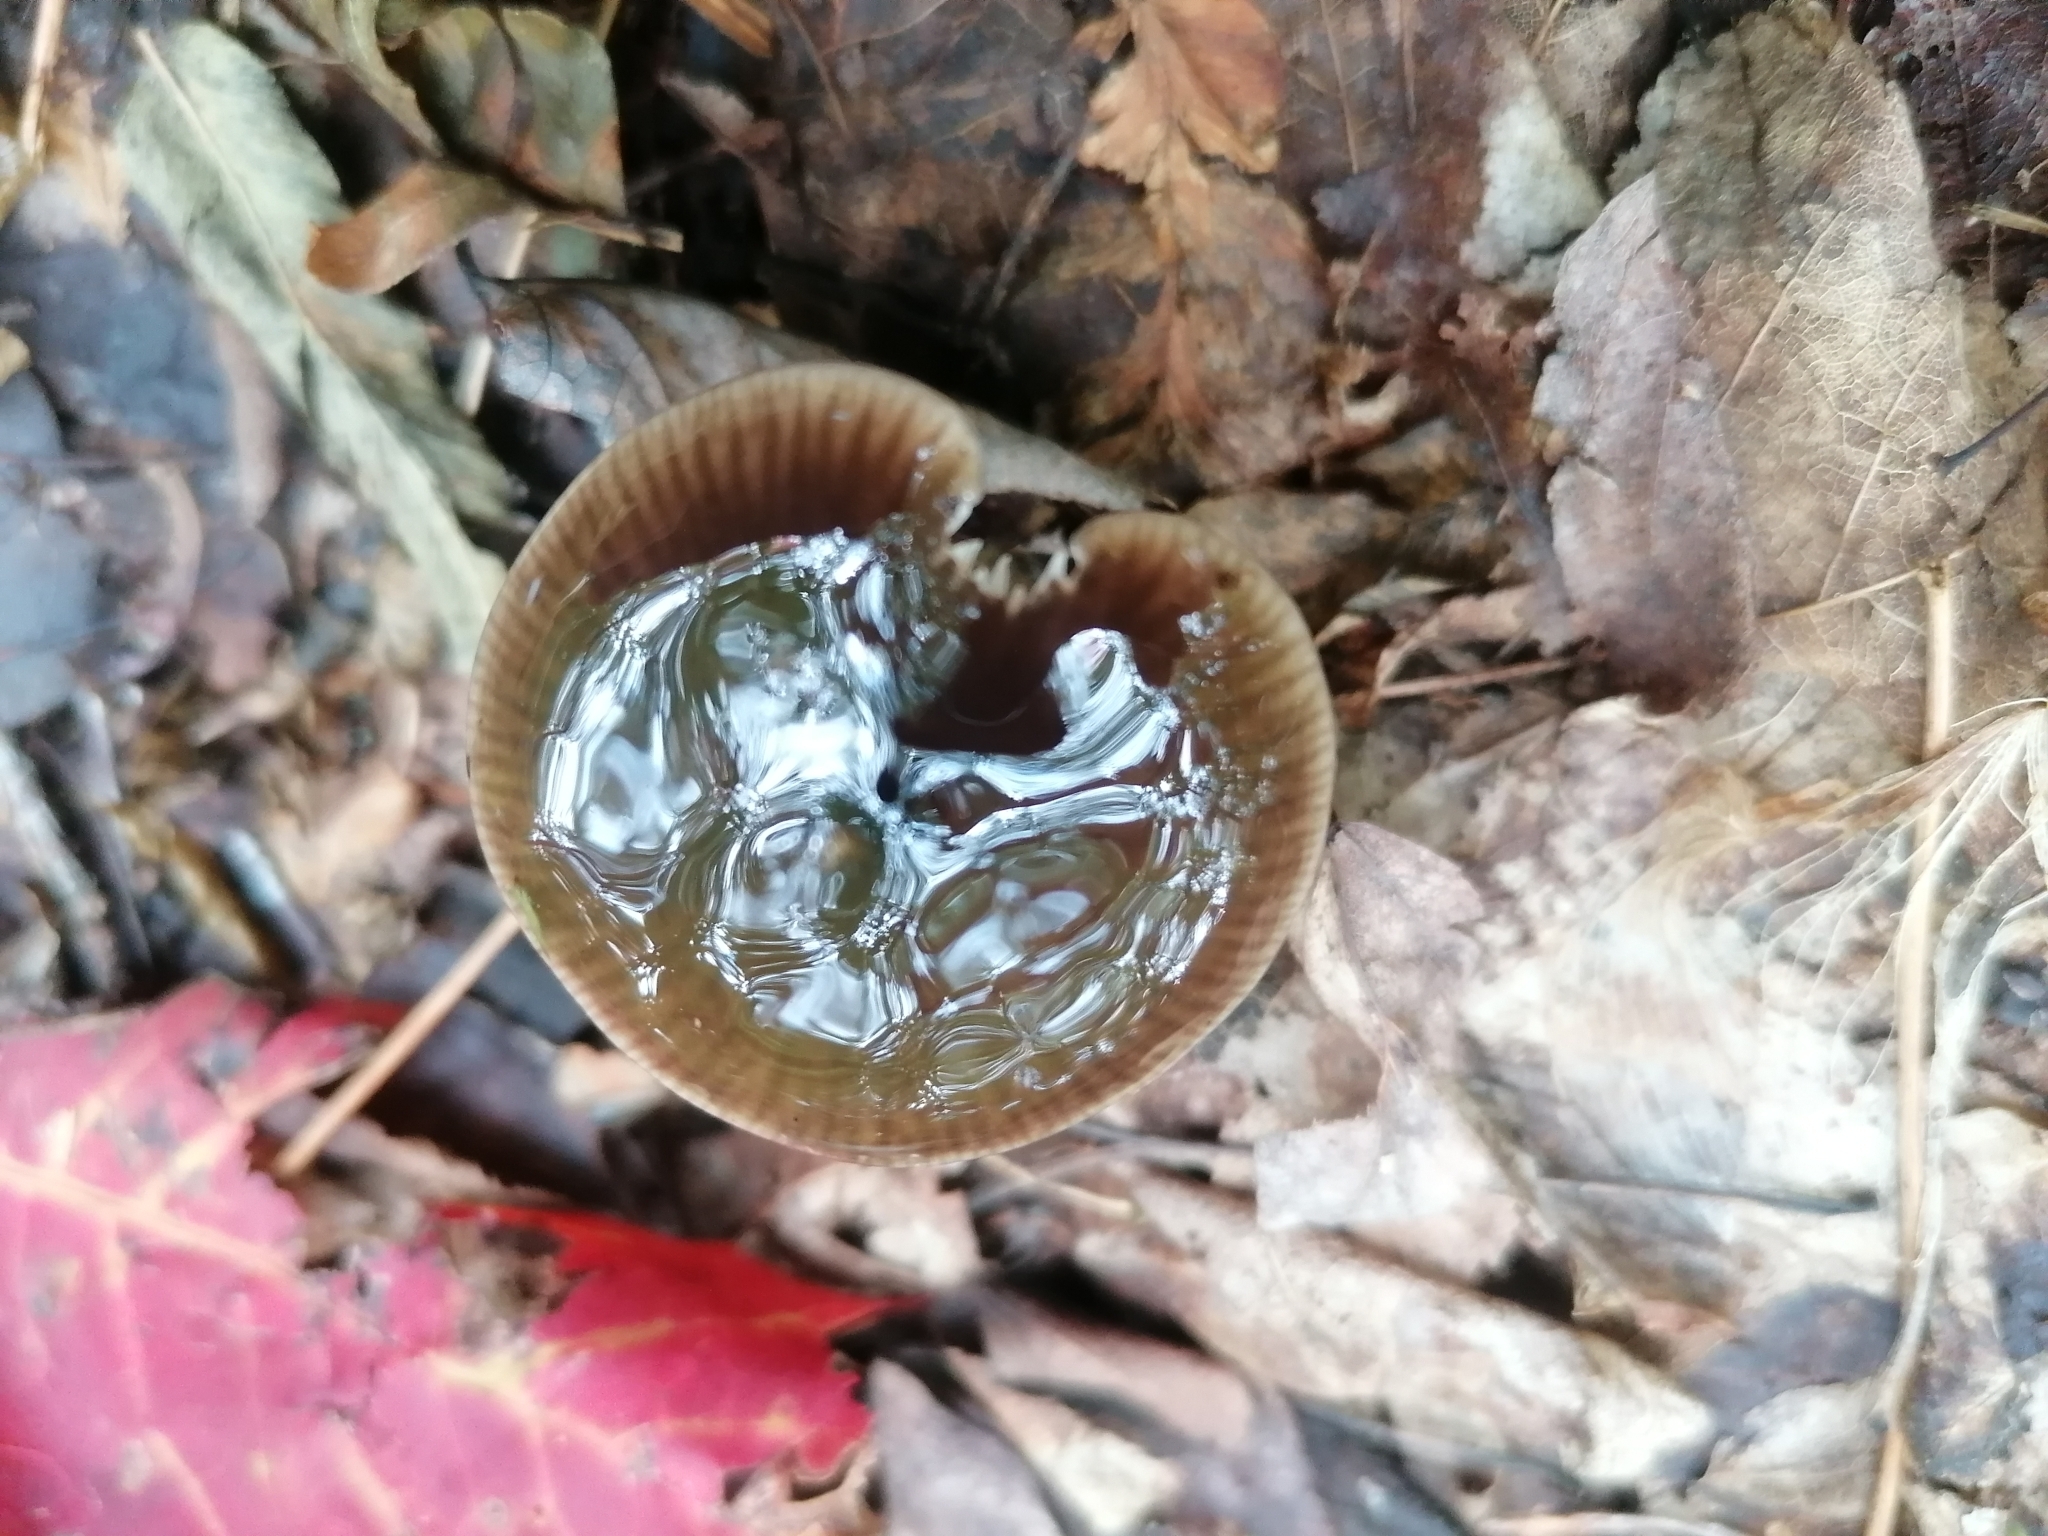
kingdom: Fungi
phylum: Basidiomycota
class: Agaricomycetes
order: Agaricales
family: Hygrophoraceae
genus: Gliophorus
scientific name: Gliophorus irrigatus
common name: Slimy waxcap
